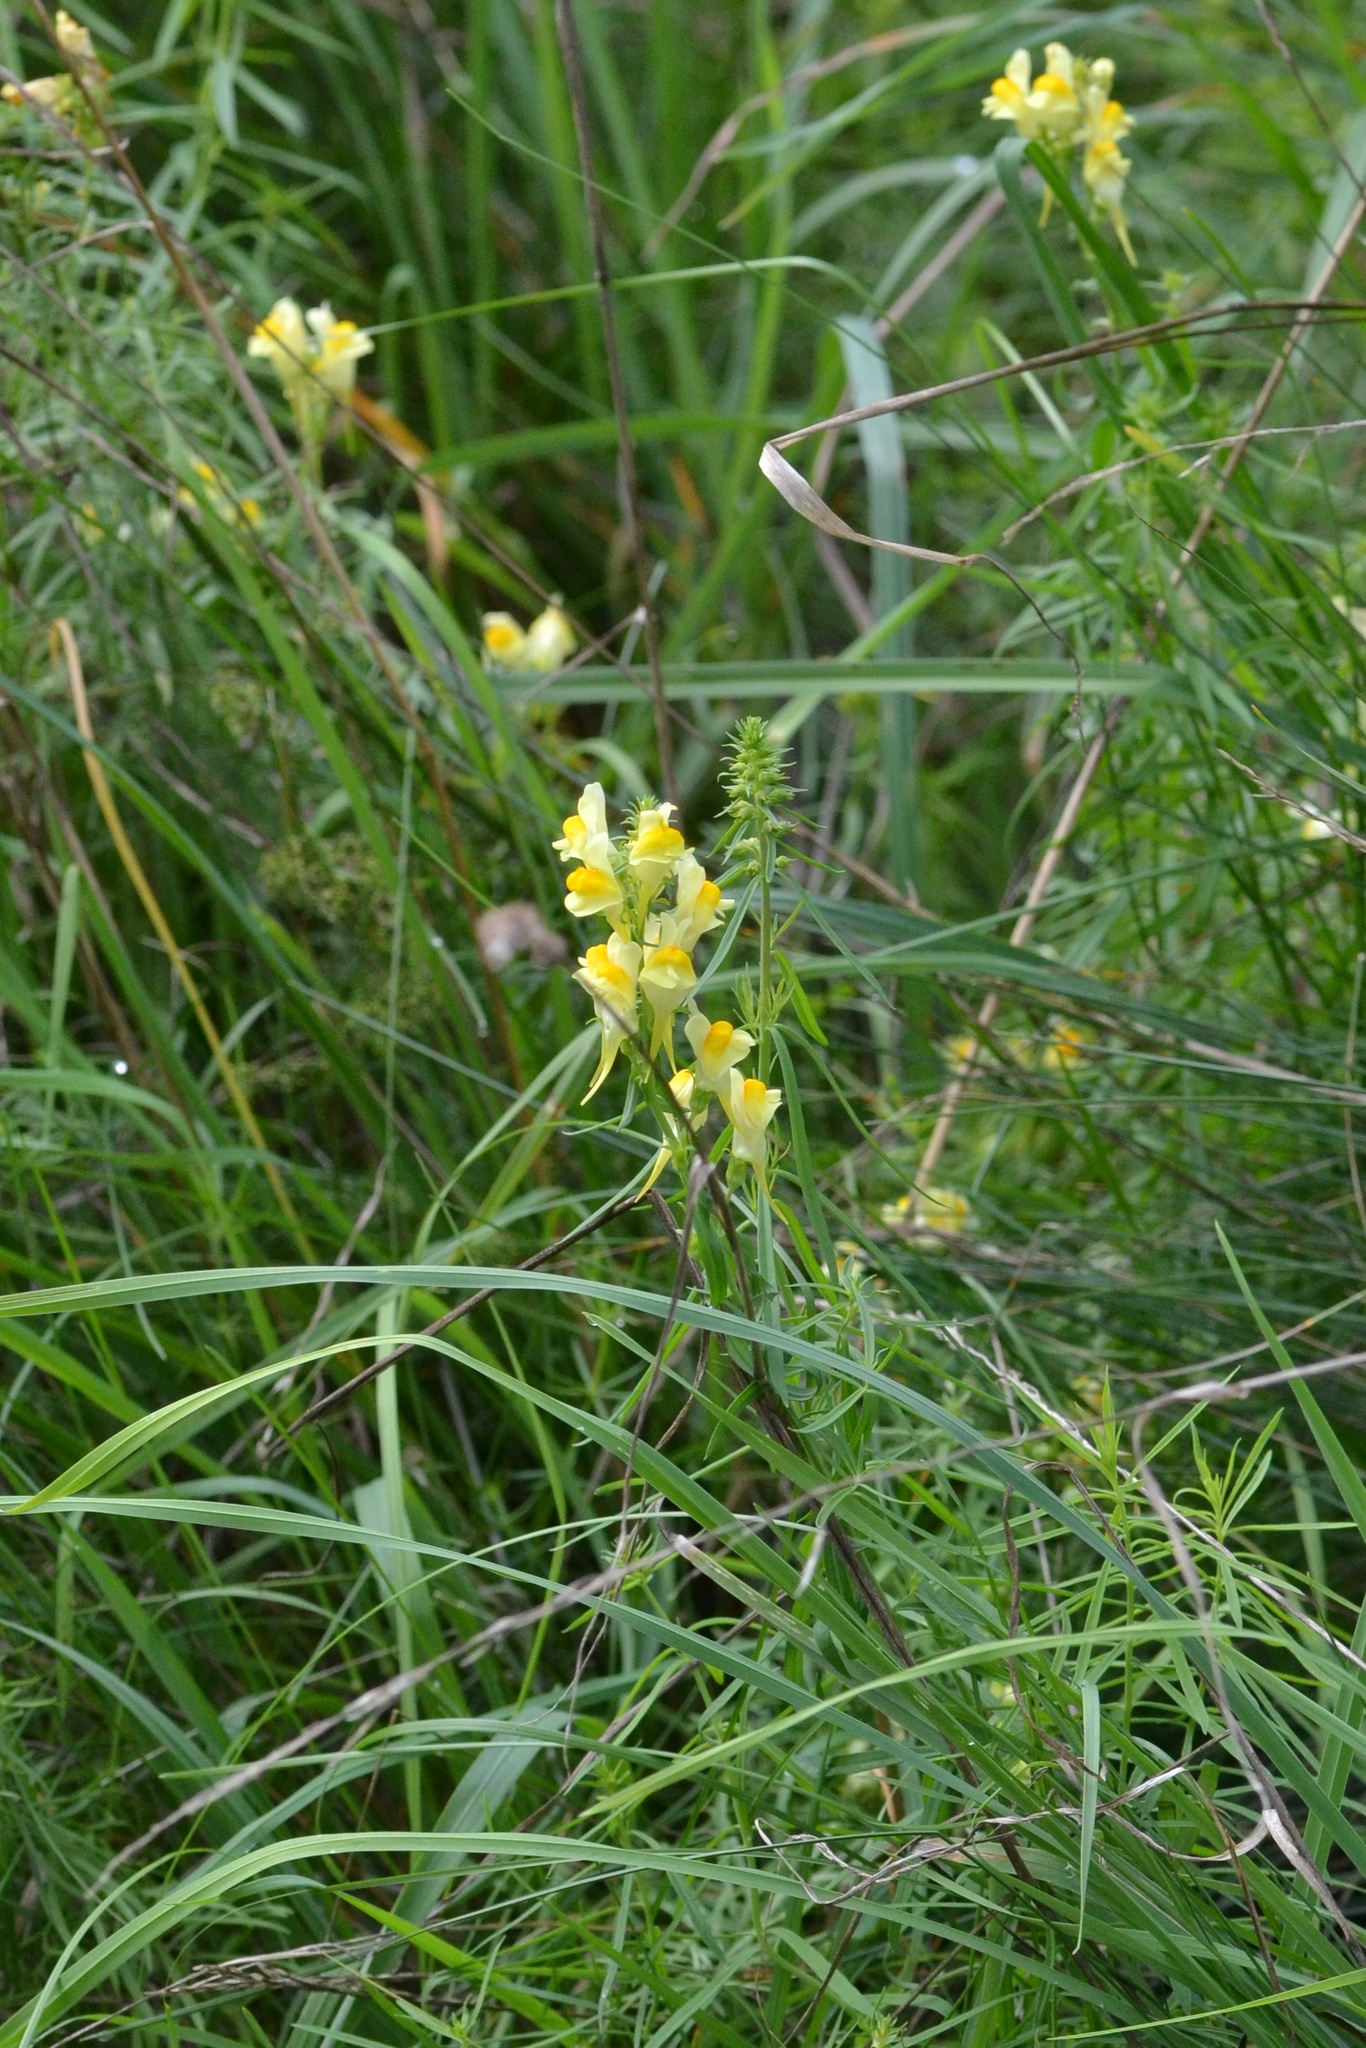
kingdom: Plantae
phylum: Tracheophyta
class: Magnoliopsida
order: Lamiales
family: Plantaginaceae
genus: Linaria
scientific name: Linaria vulgaris
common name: Butter and eggs
